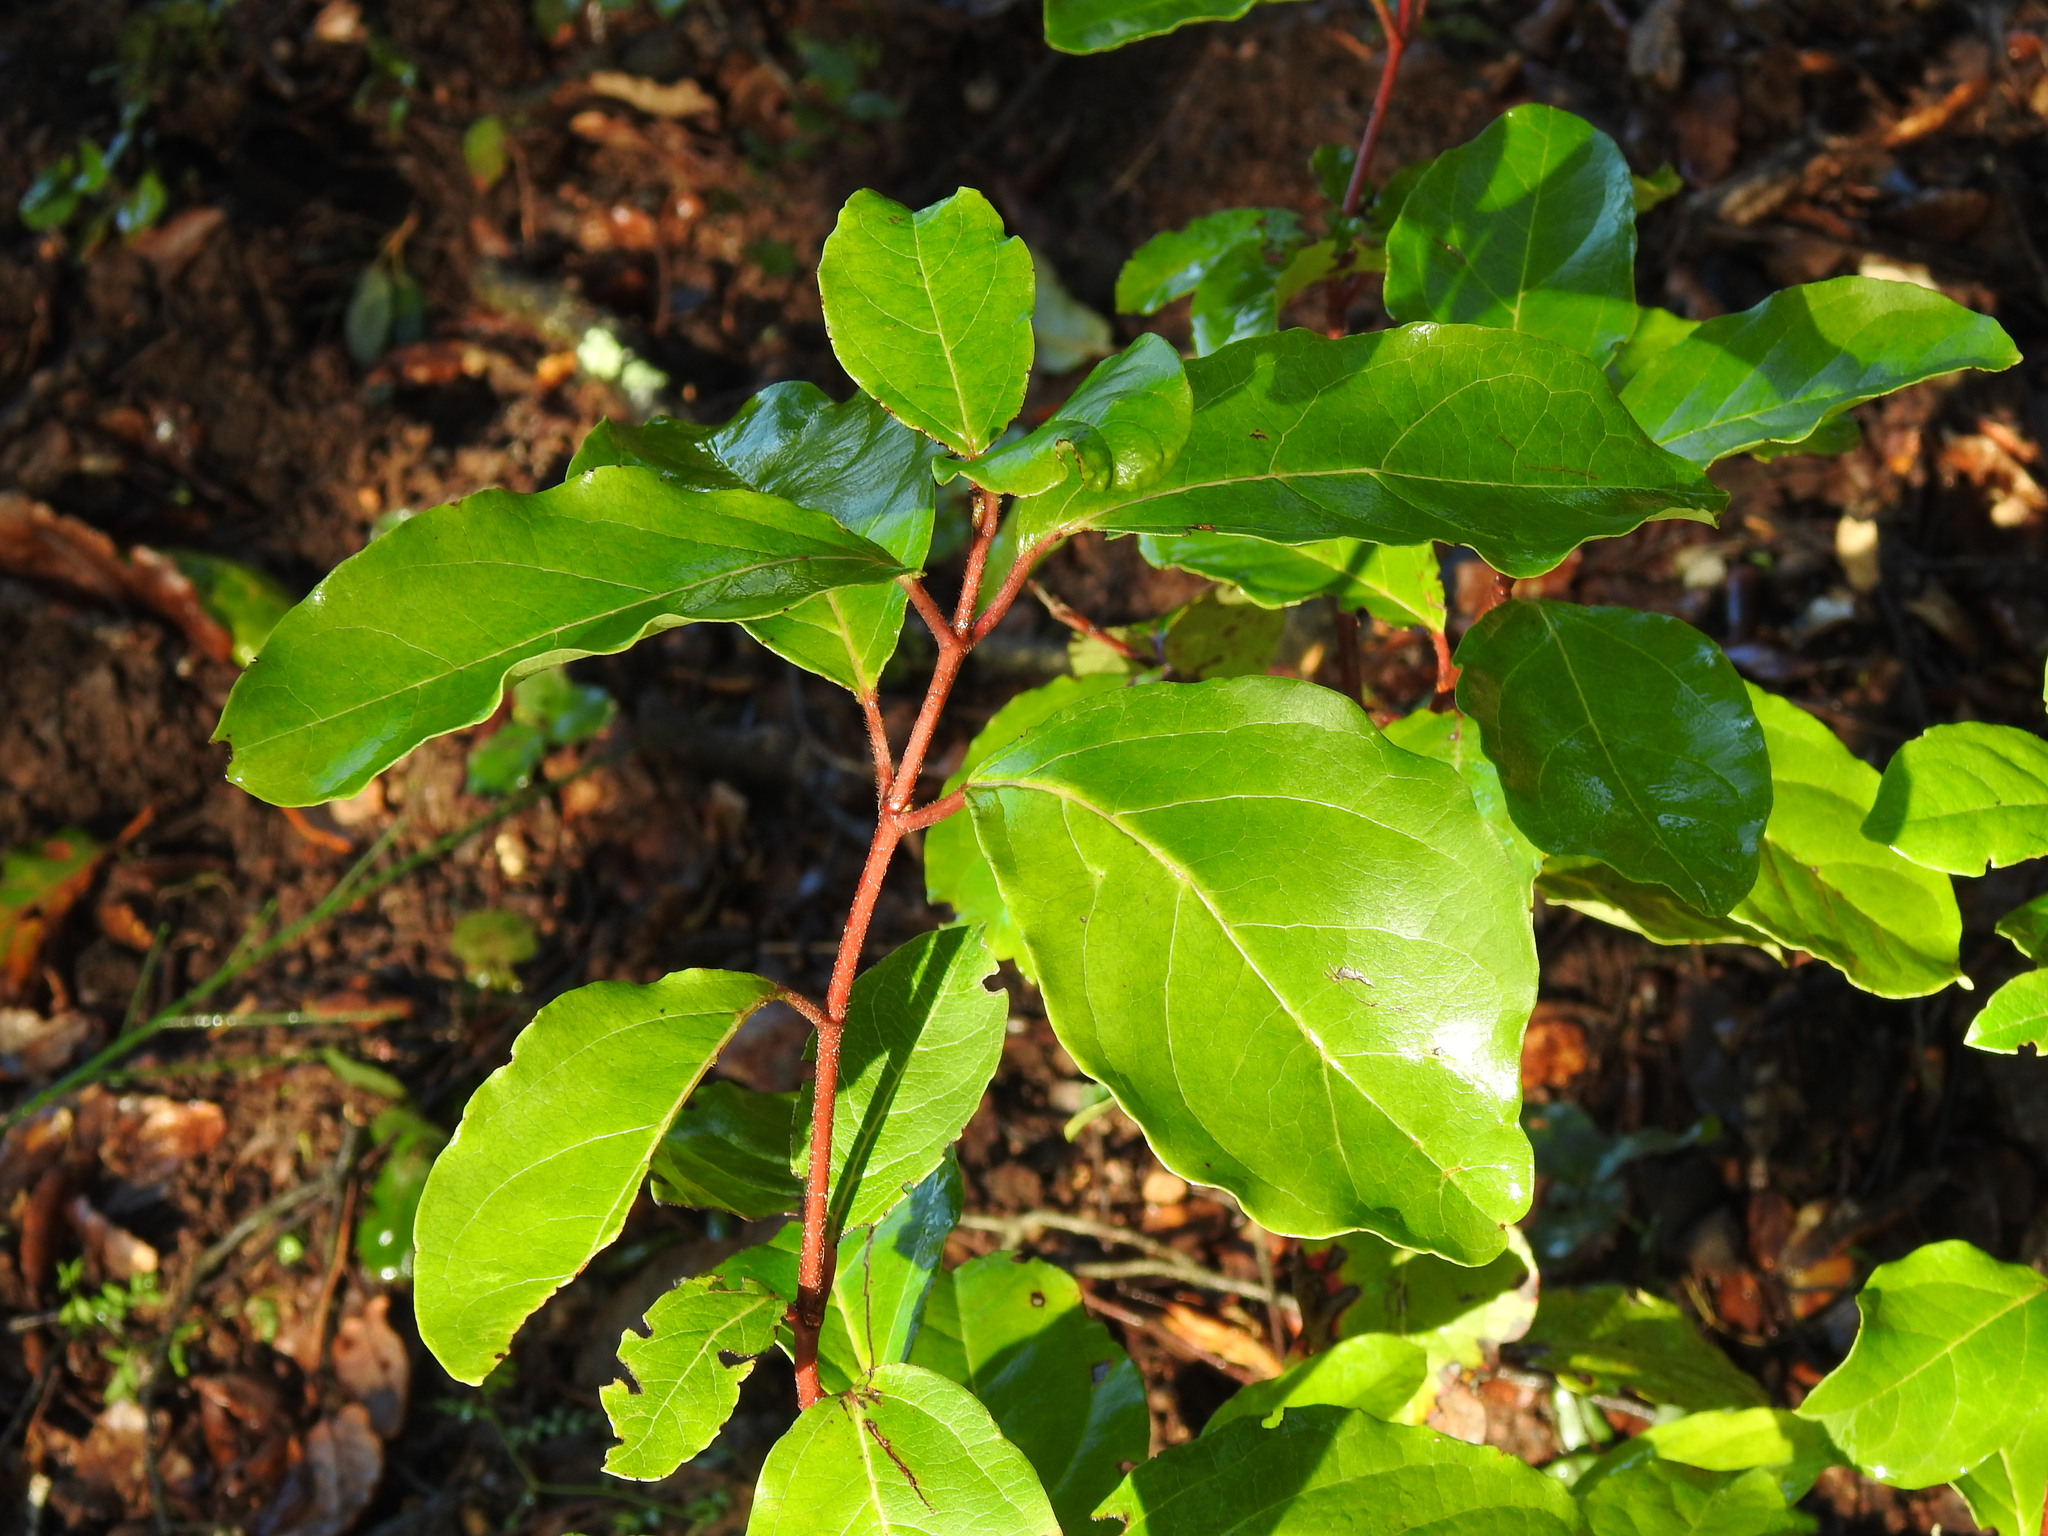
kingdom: Plantae
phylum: Tracheophyta
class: Magnoliopsida
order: Dipsacales
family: Viburnaceae
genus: Viburnum
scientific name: Viburnum tinus
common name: Laurustinus
